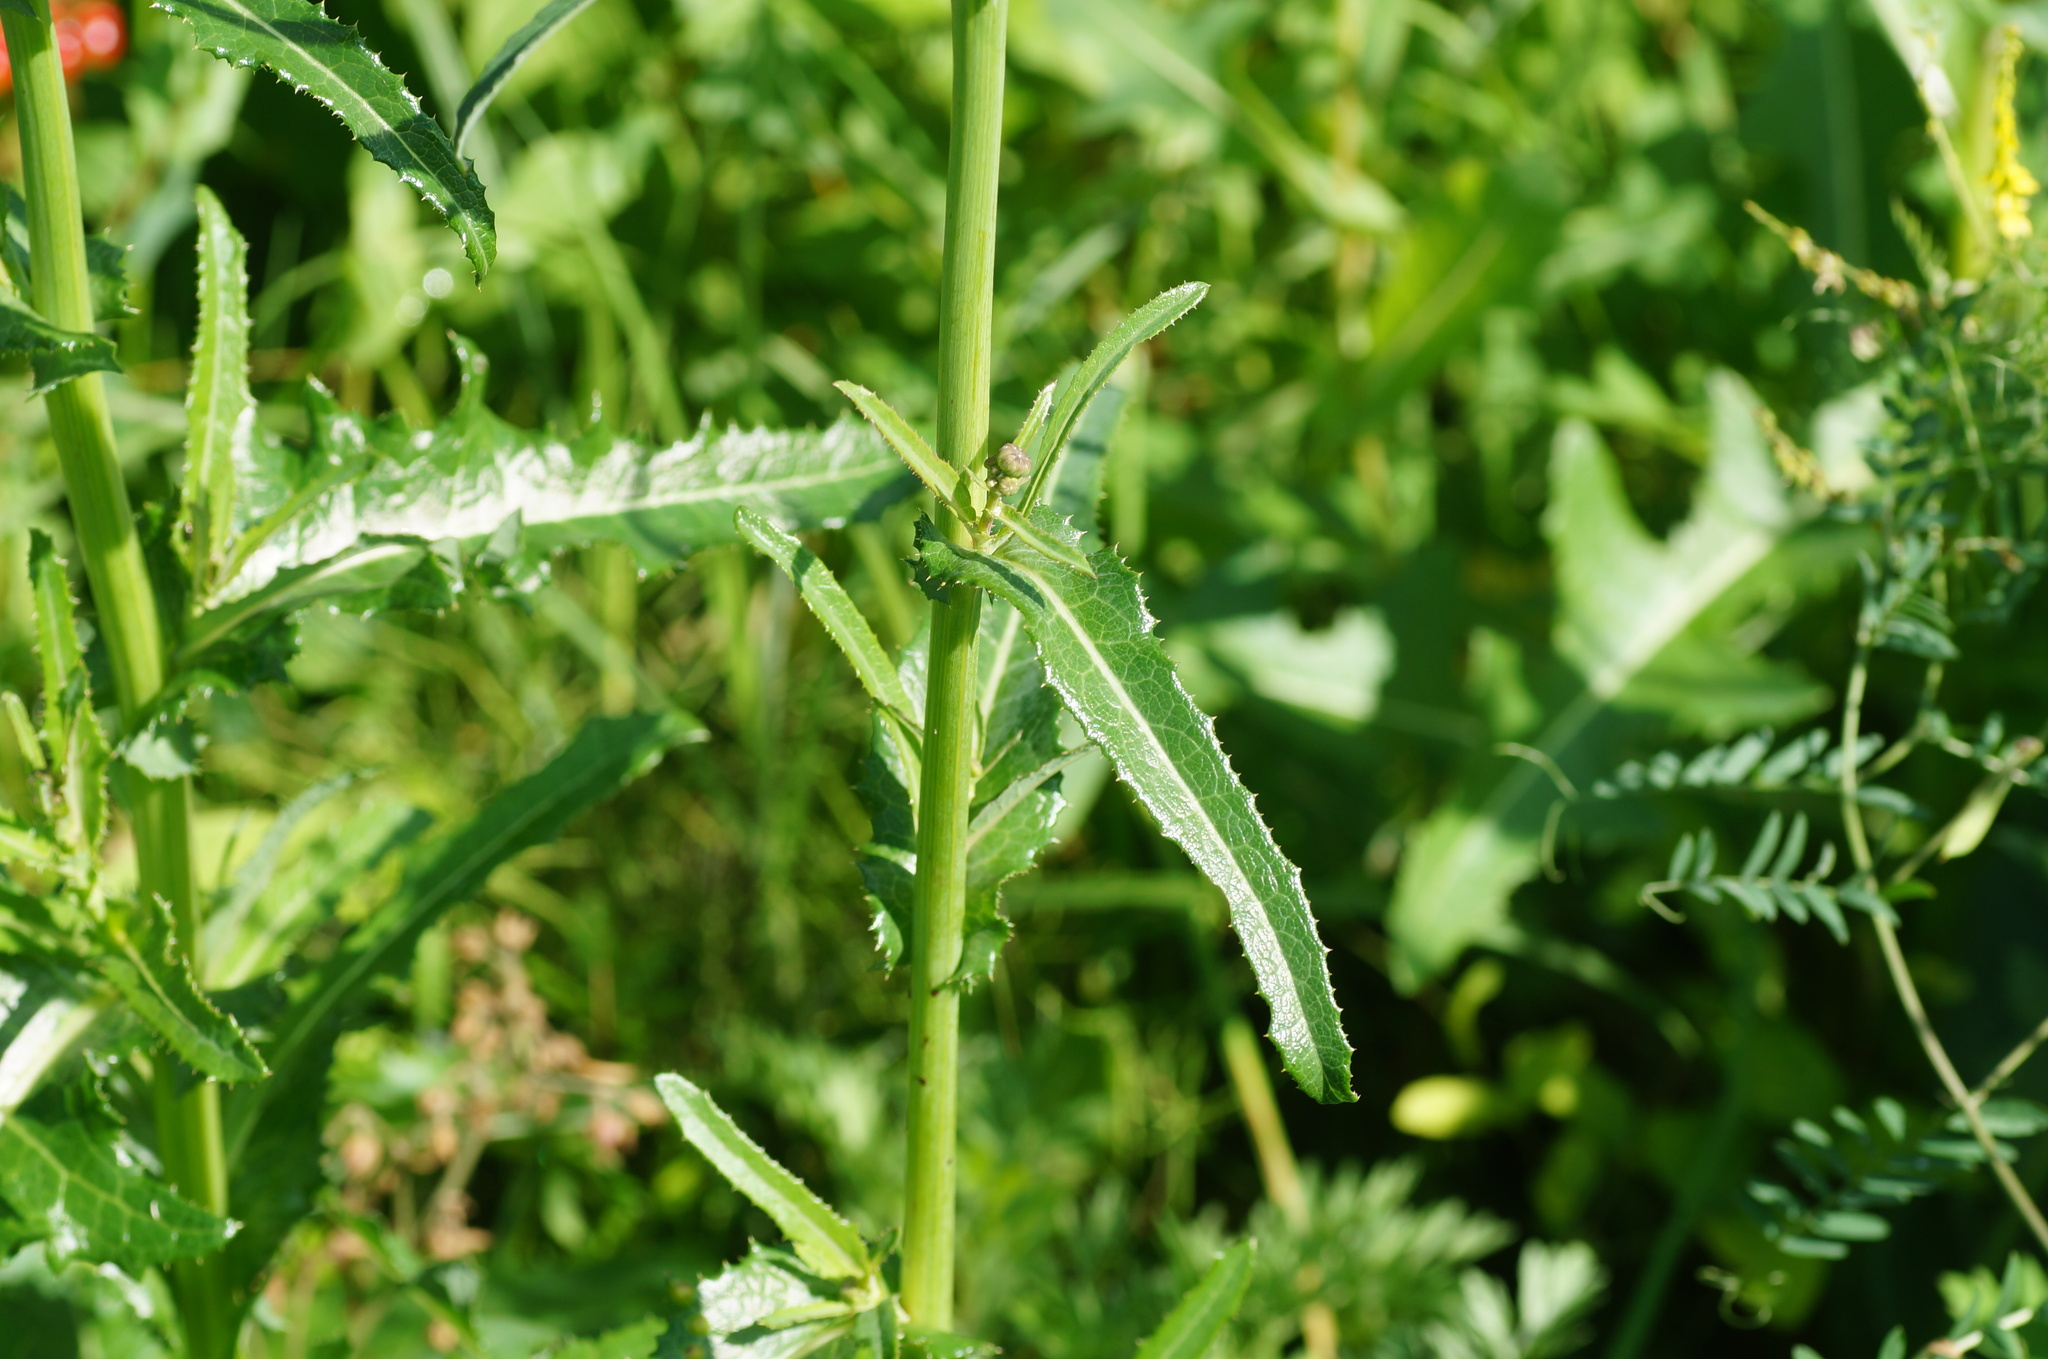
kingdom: Plantae
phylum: Tracheophyta
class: Magnoliopsida
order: Asterales
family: Asteraceae
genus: Sonchus
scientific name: Sonchus arvensis
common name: Perennial sow-thistle
